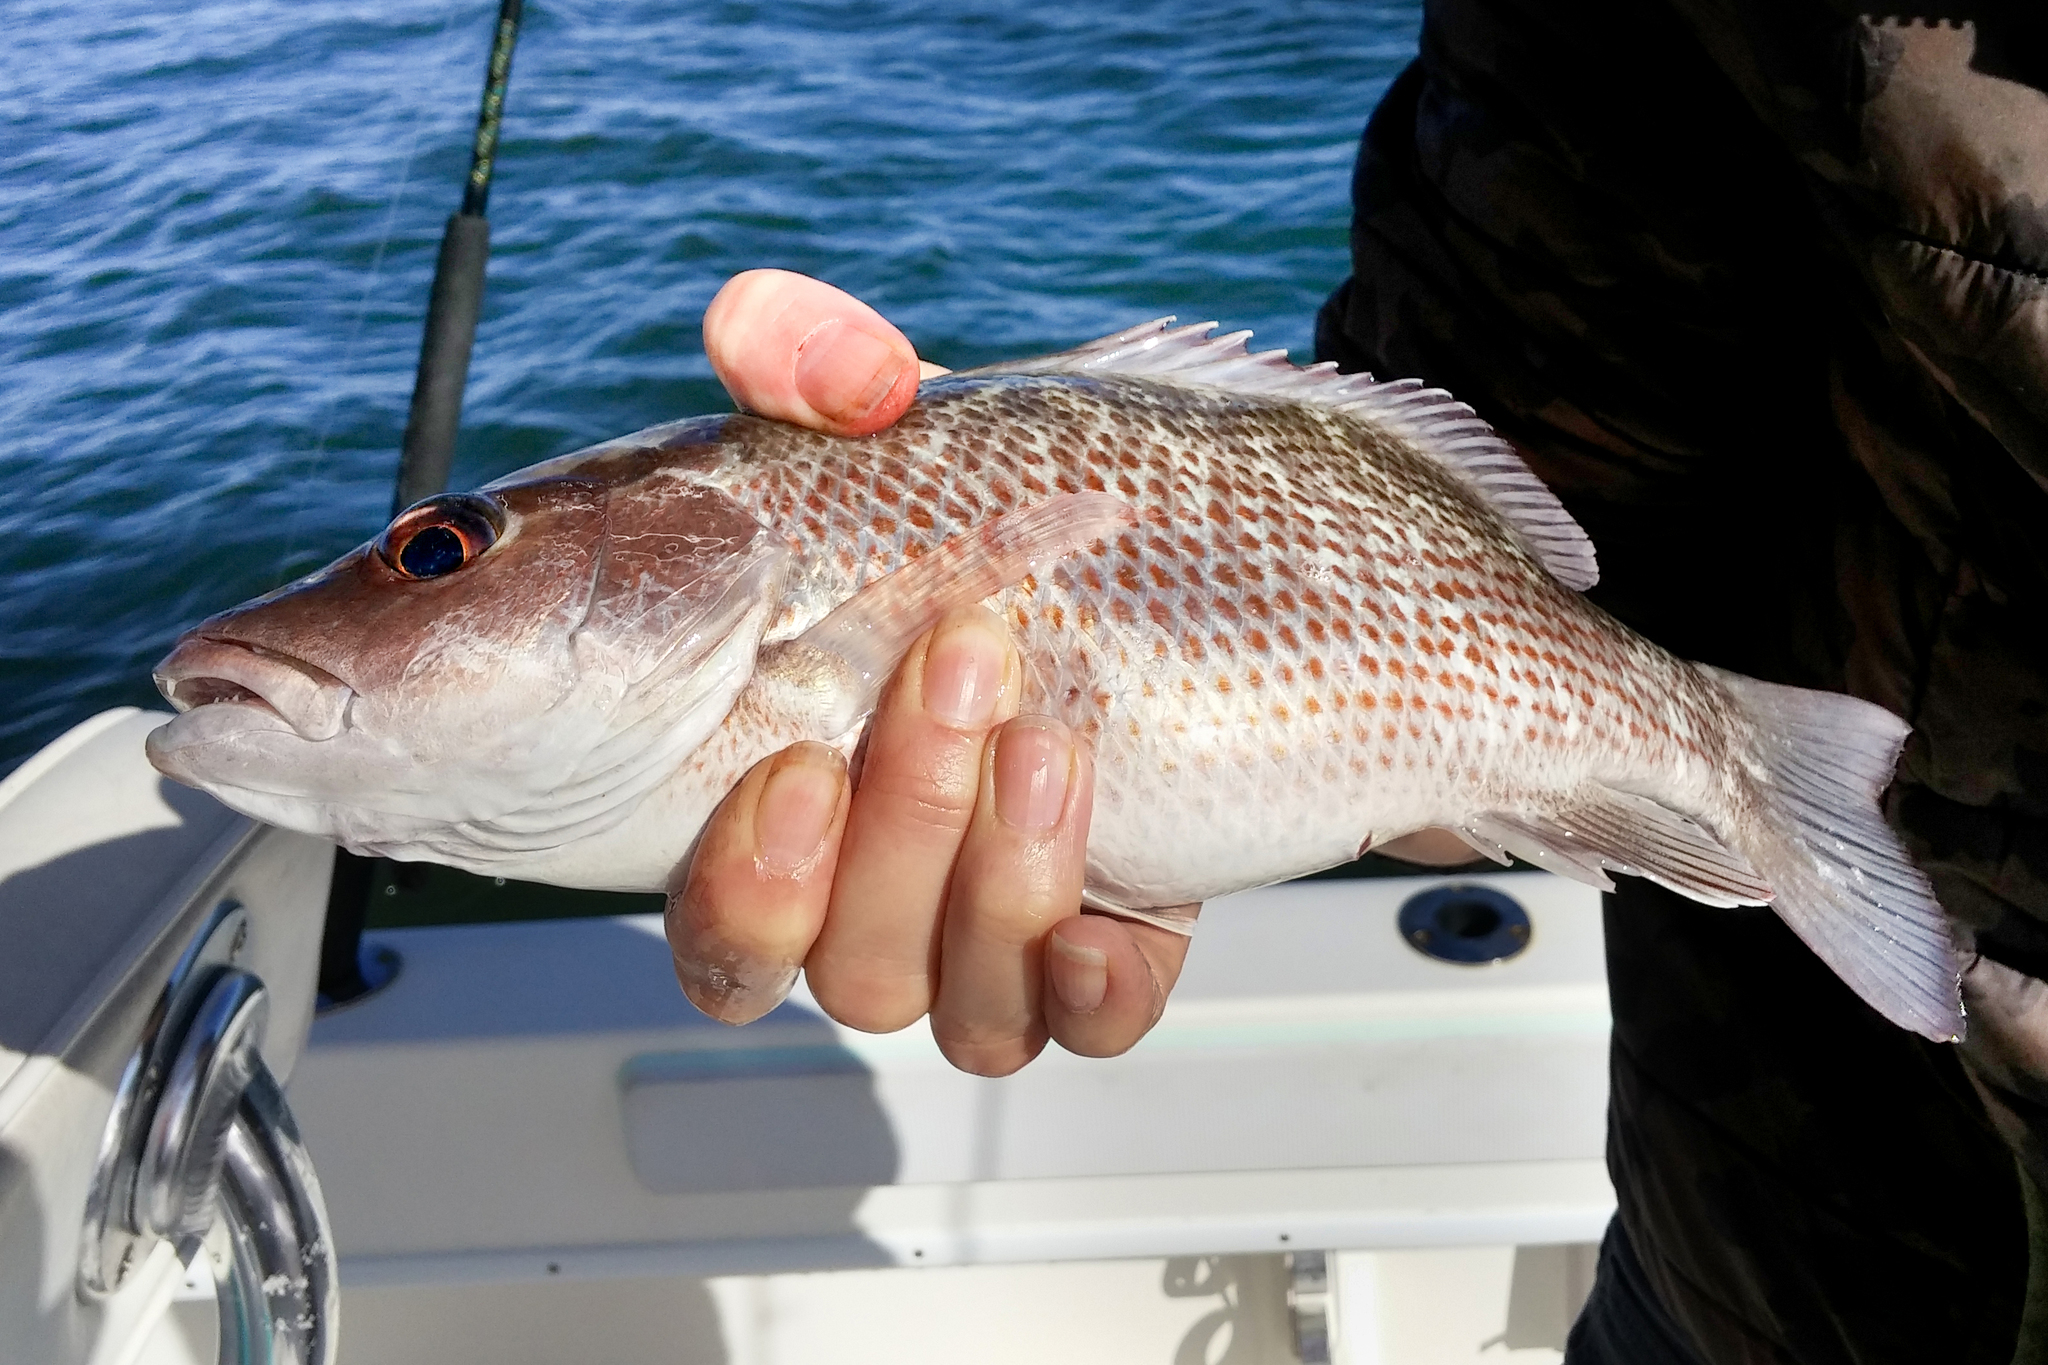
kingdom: Animalia
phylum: Chordata
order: Perciformes
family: Lutjanidae
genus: Lutjanus
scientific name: Lutjanus griseus
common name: Gray snapper
